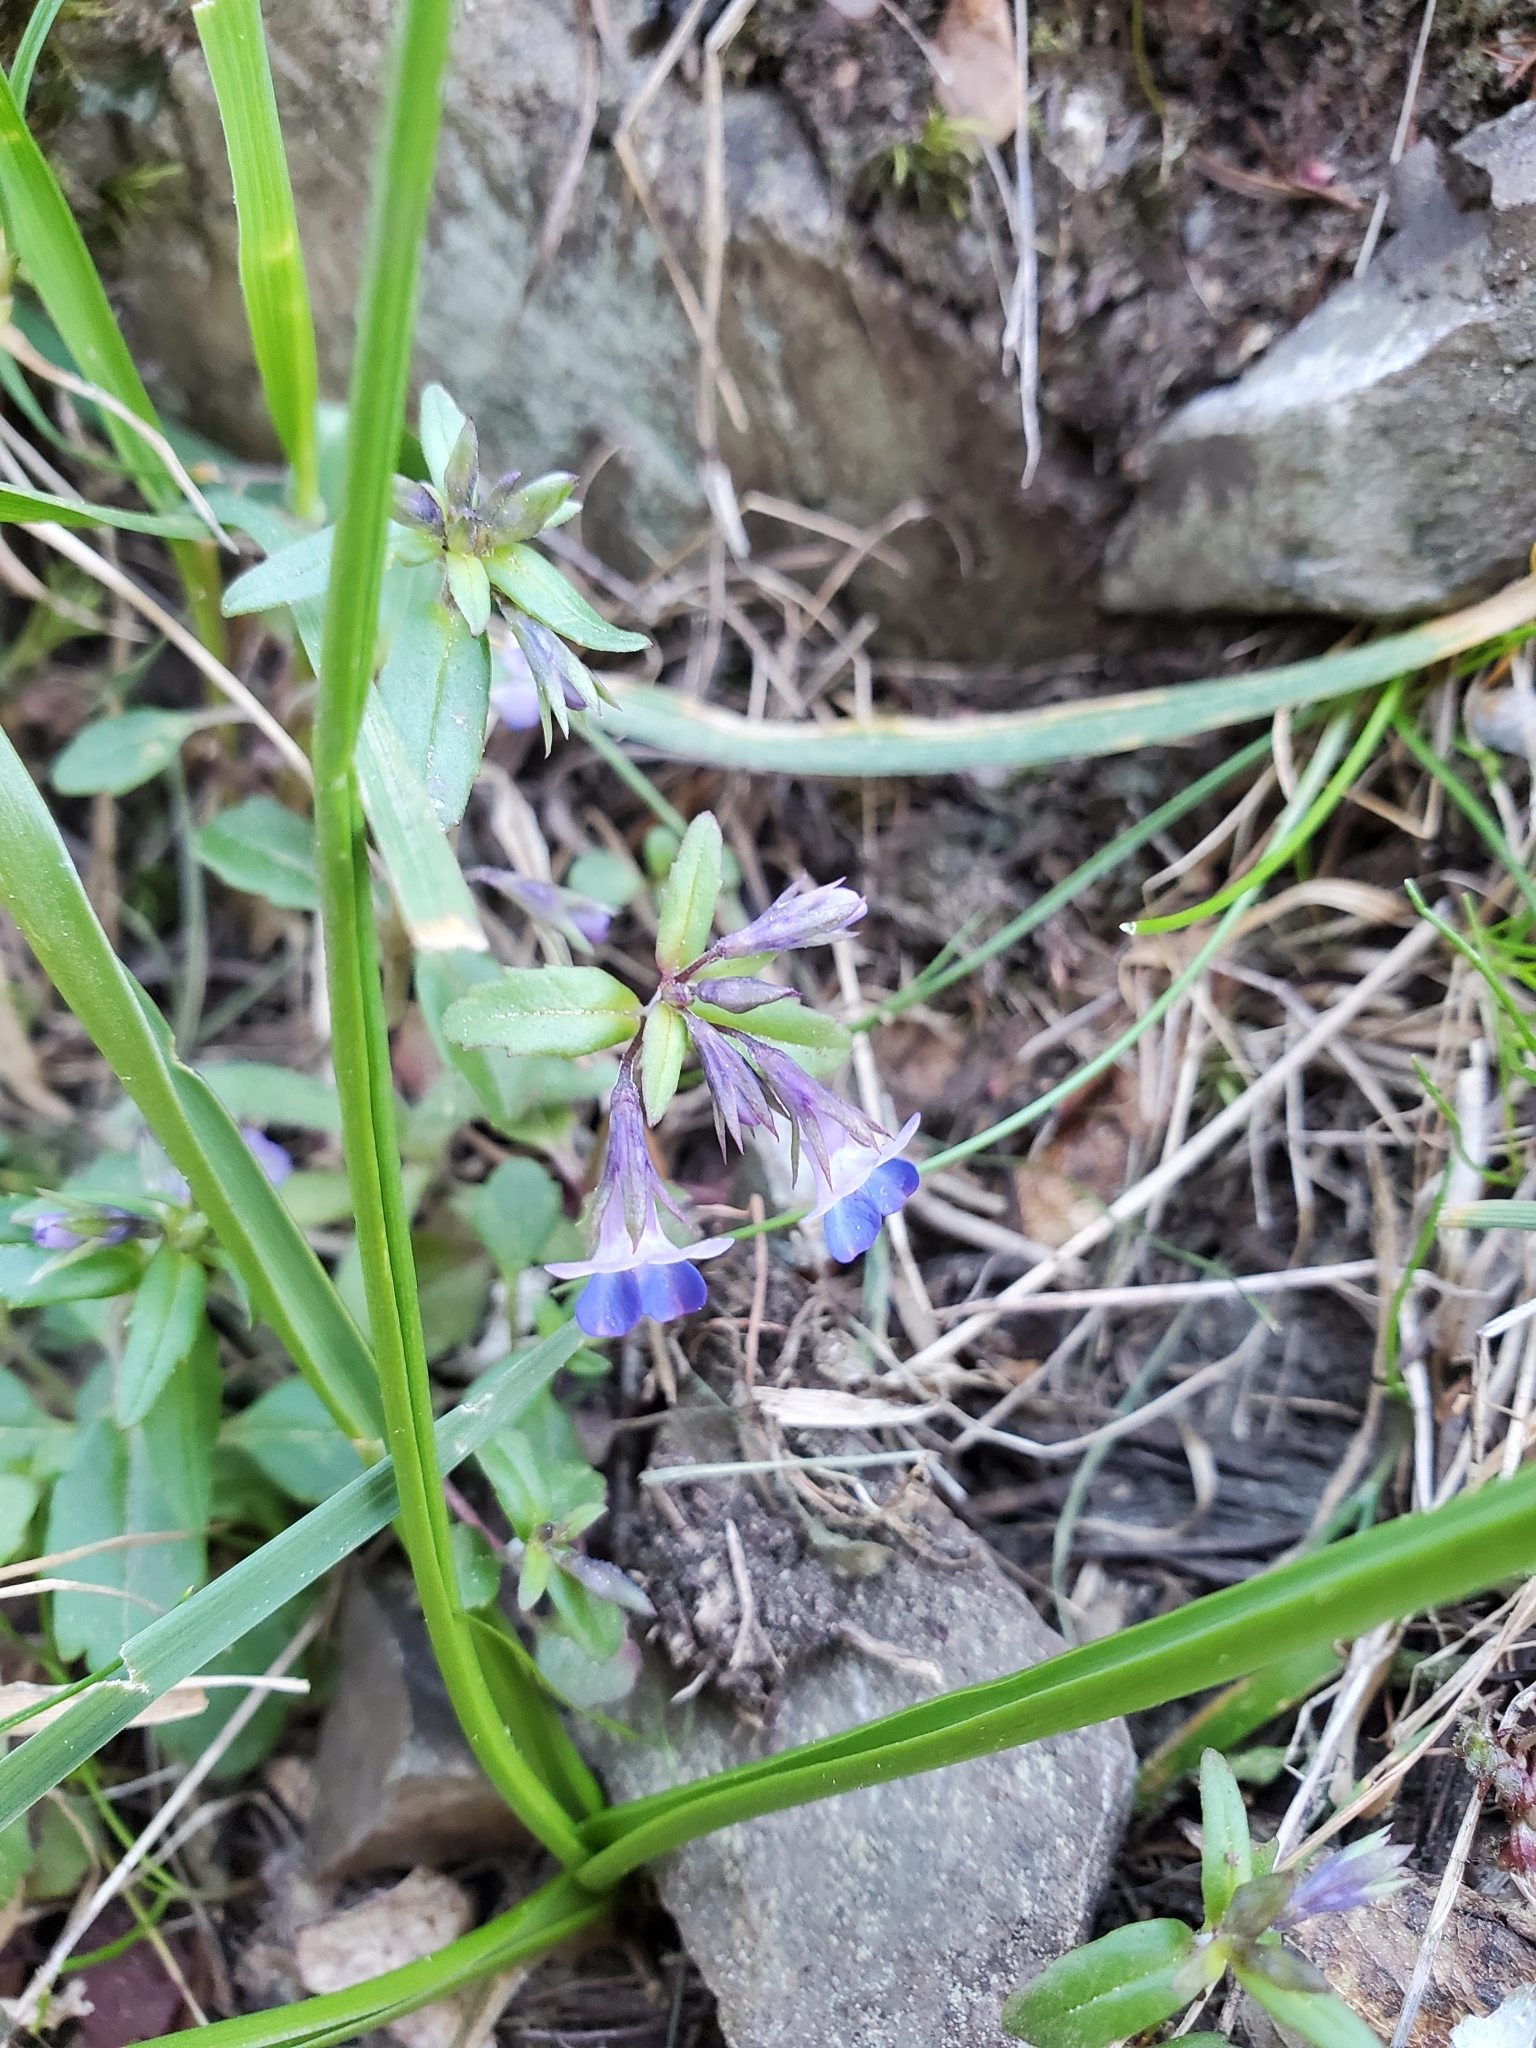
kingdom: Plantae
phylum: Tracheophyta
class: Magnoliopsida
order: Lamiales
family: Plantaginaceae
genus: Collinsia
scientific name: Collinsia parviflora
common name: Blue-lips
